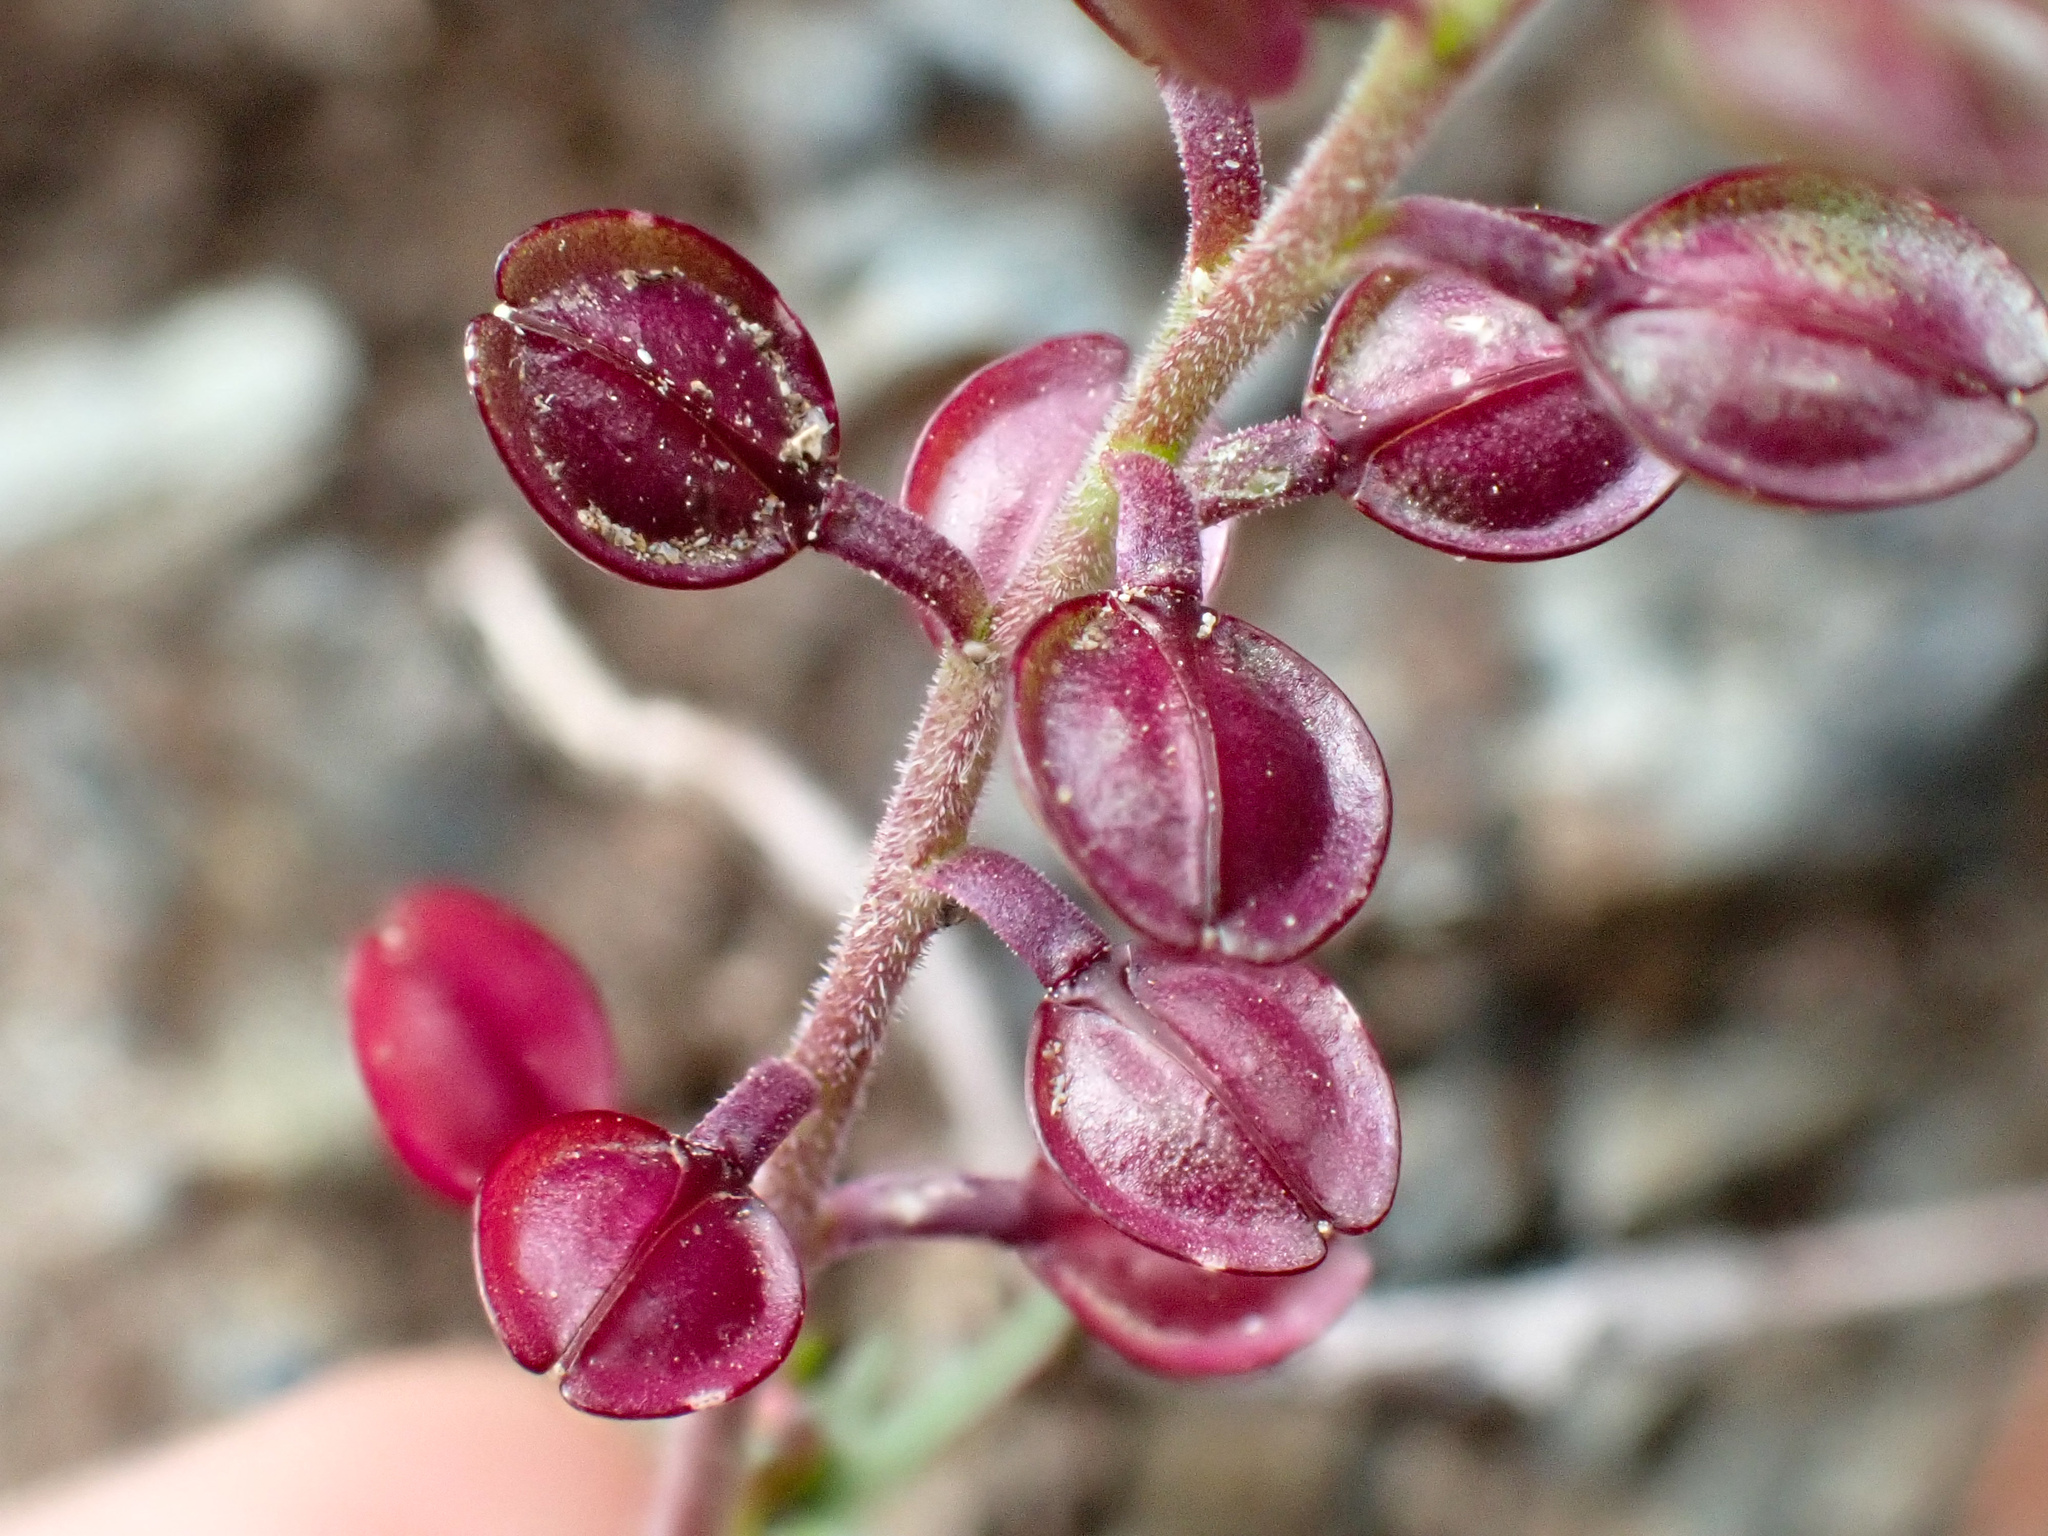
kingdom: Plantae
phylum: Tracheophyta
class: Magnoliopsida
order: Brassicales
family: Brassicaceae
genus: Lepidium
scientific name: Lepidium nitidum
